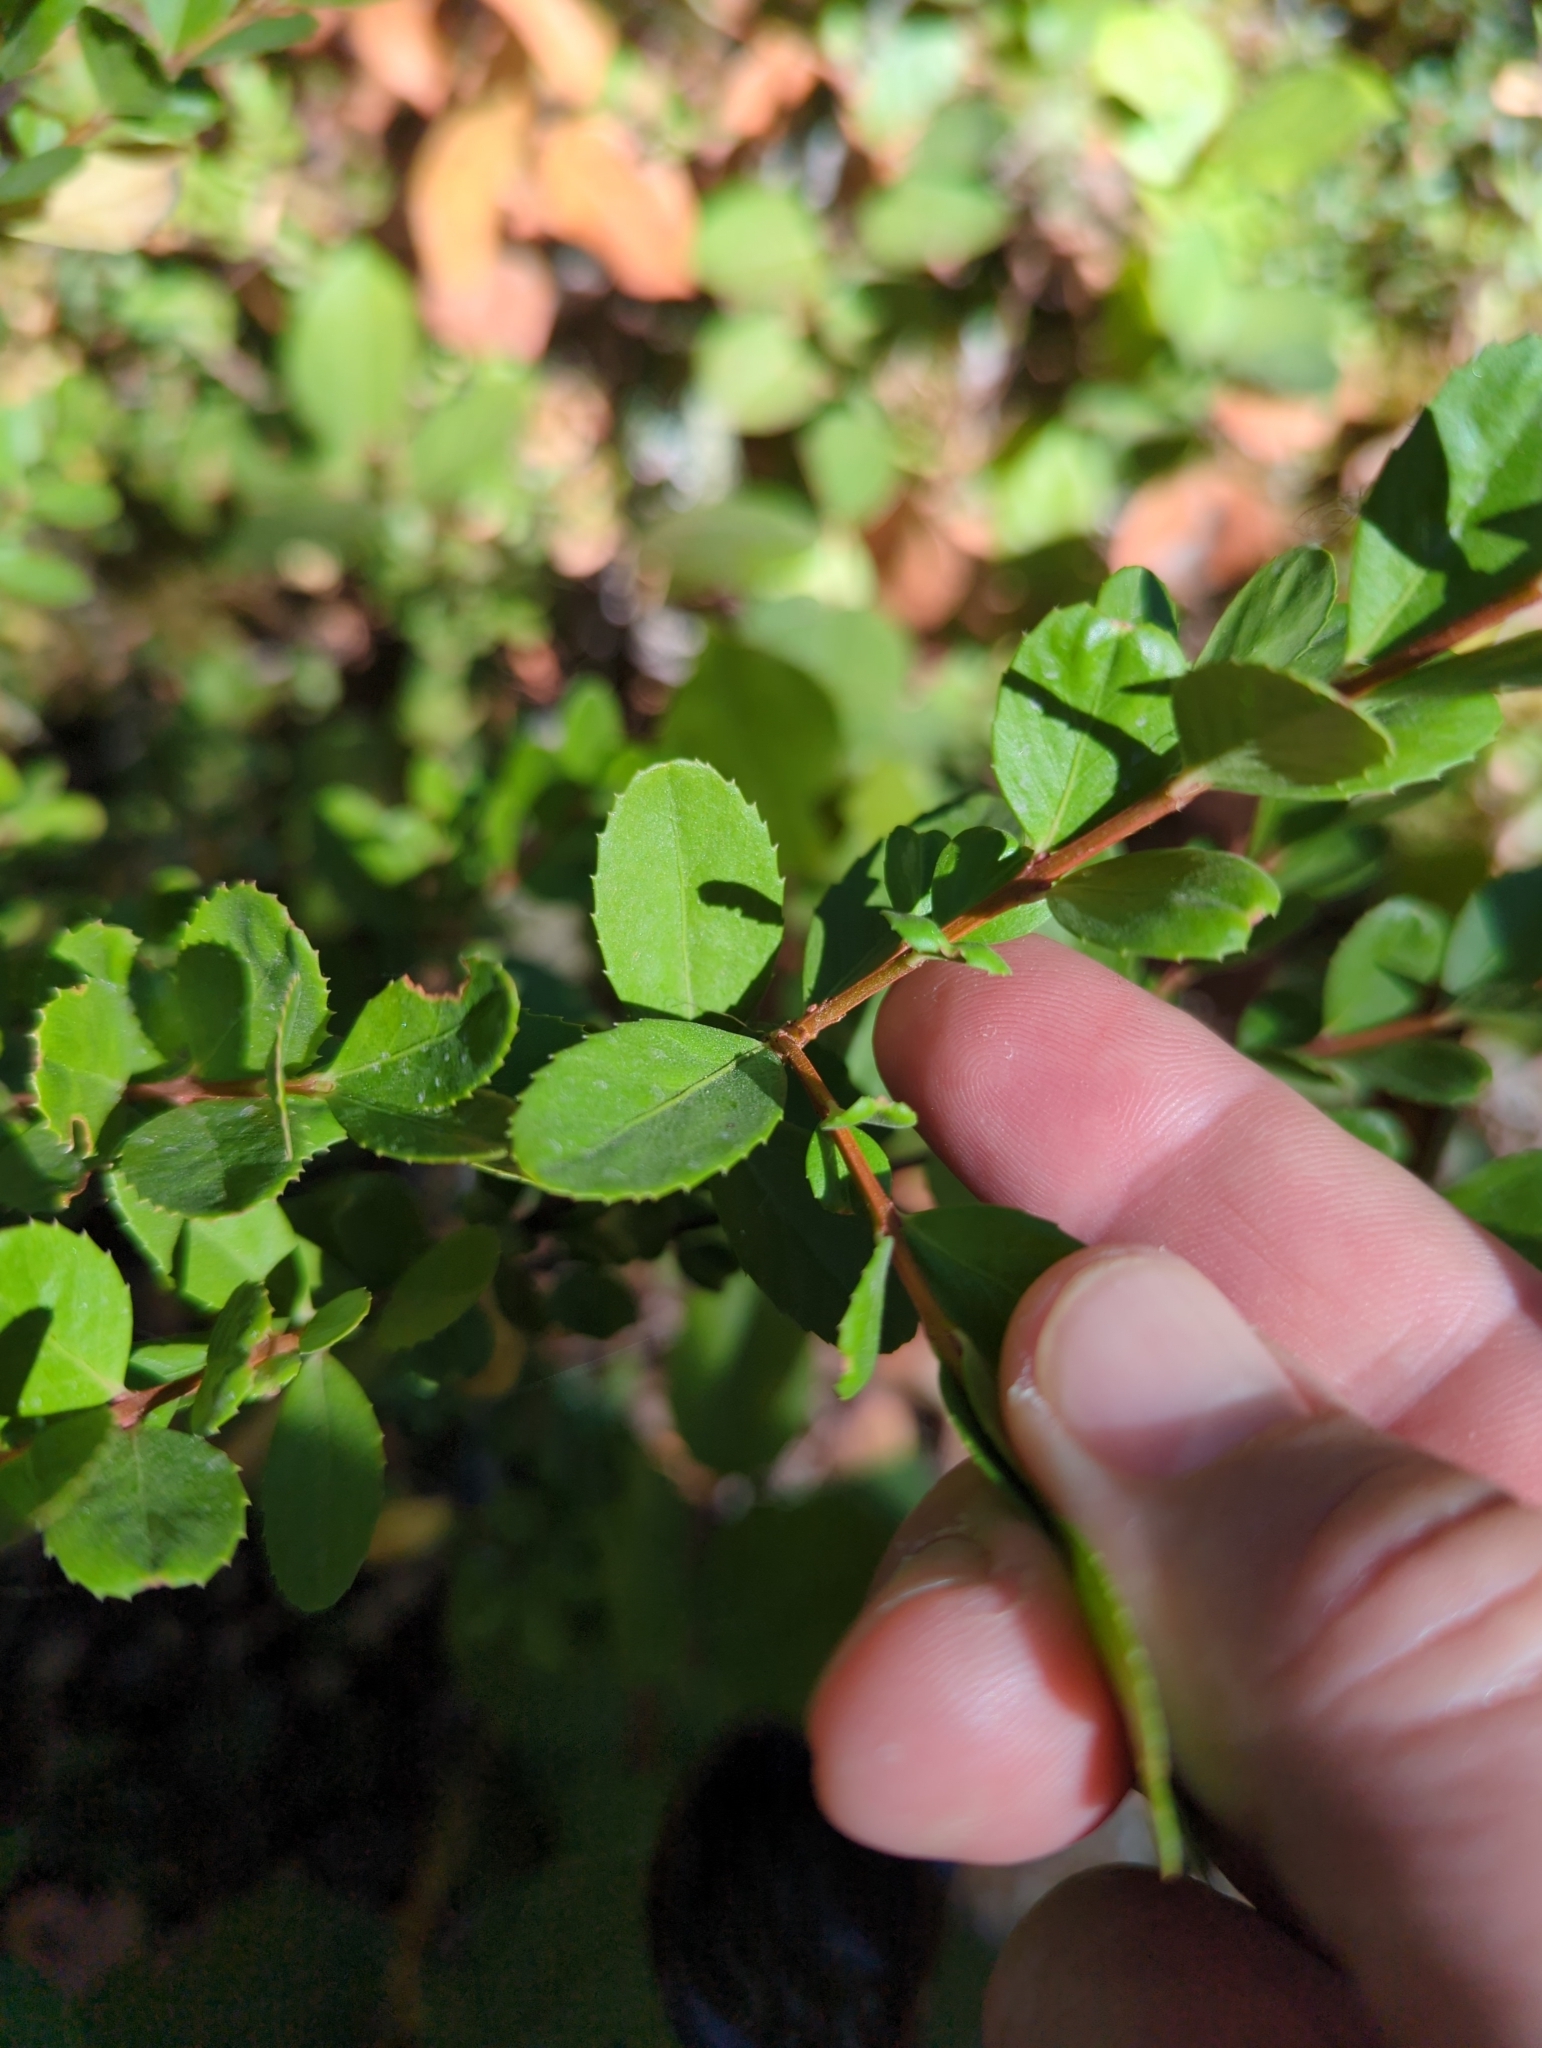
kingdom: Plantae
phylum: Tracheophyta
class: Magnoliopsida
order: Celastrales
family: Celastraceae
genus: Paxistima
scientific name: Paxistima myrsinites
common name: Mountain-lover
